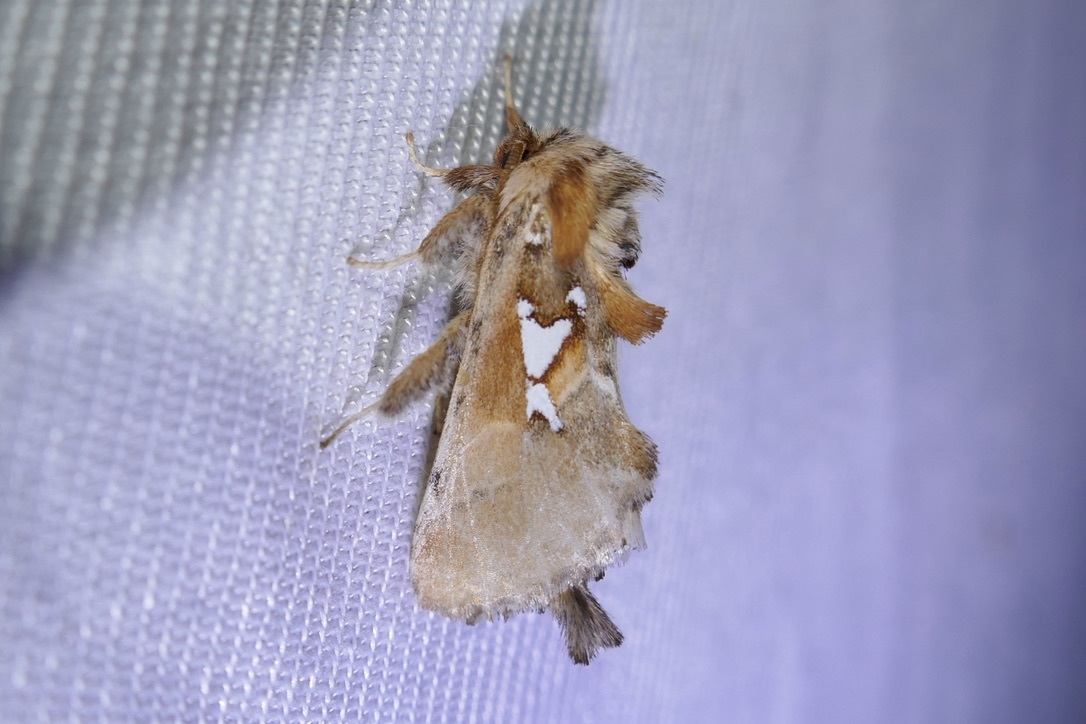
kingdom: Animalia
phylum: Arthropoda
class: Insecta
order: Lepidoptera
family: Notodontidae
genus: Spatalia
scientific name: Spatalia argentina
